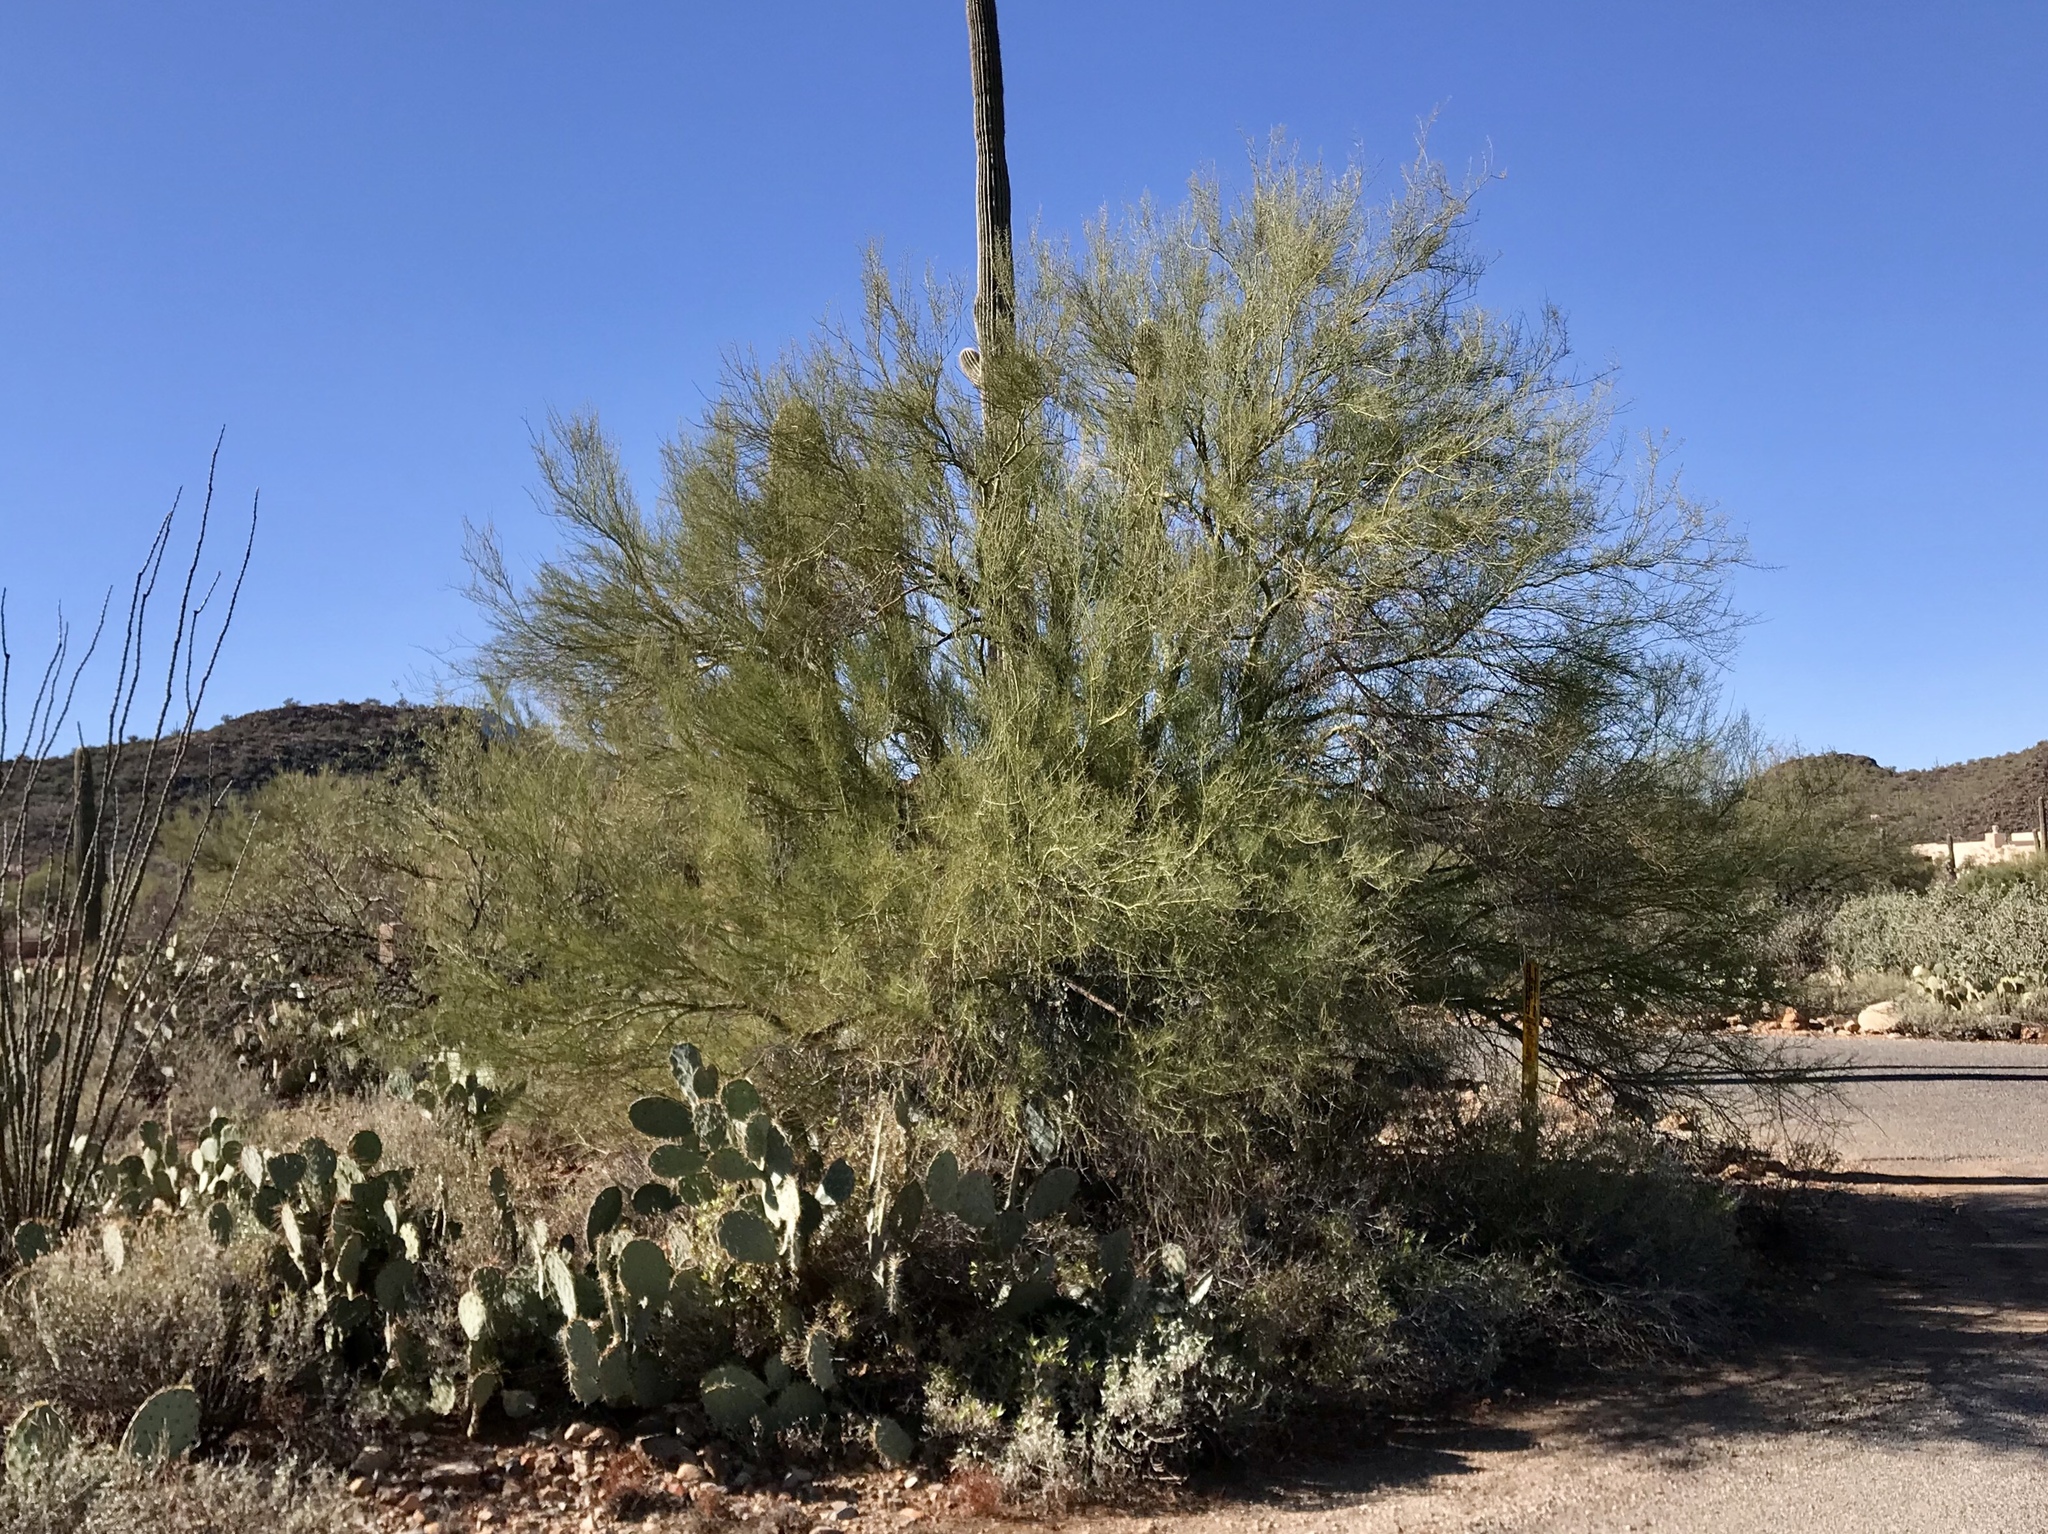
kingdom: Plantae
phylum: Tracheophyta
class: Magnoliopsida
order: Fabales
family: Fabaceae
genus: Parkinsonia
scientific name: Parkinsonia microphylla
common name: Yellow paloverde
